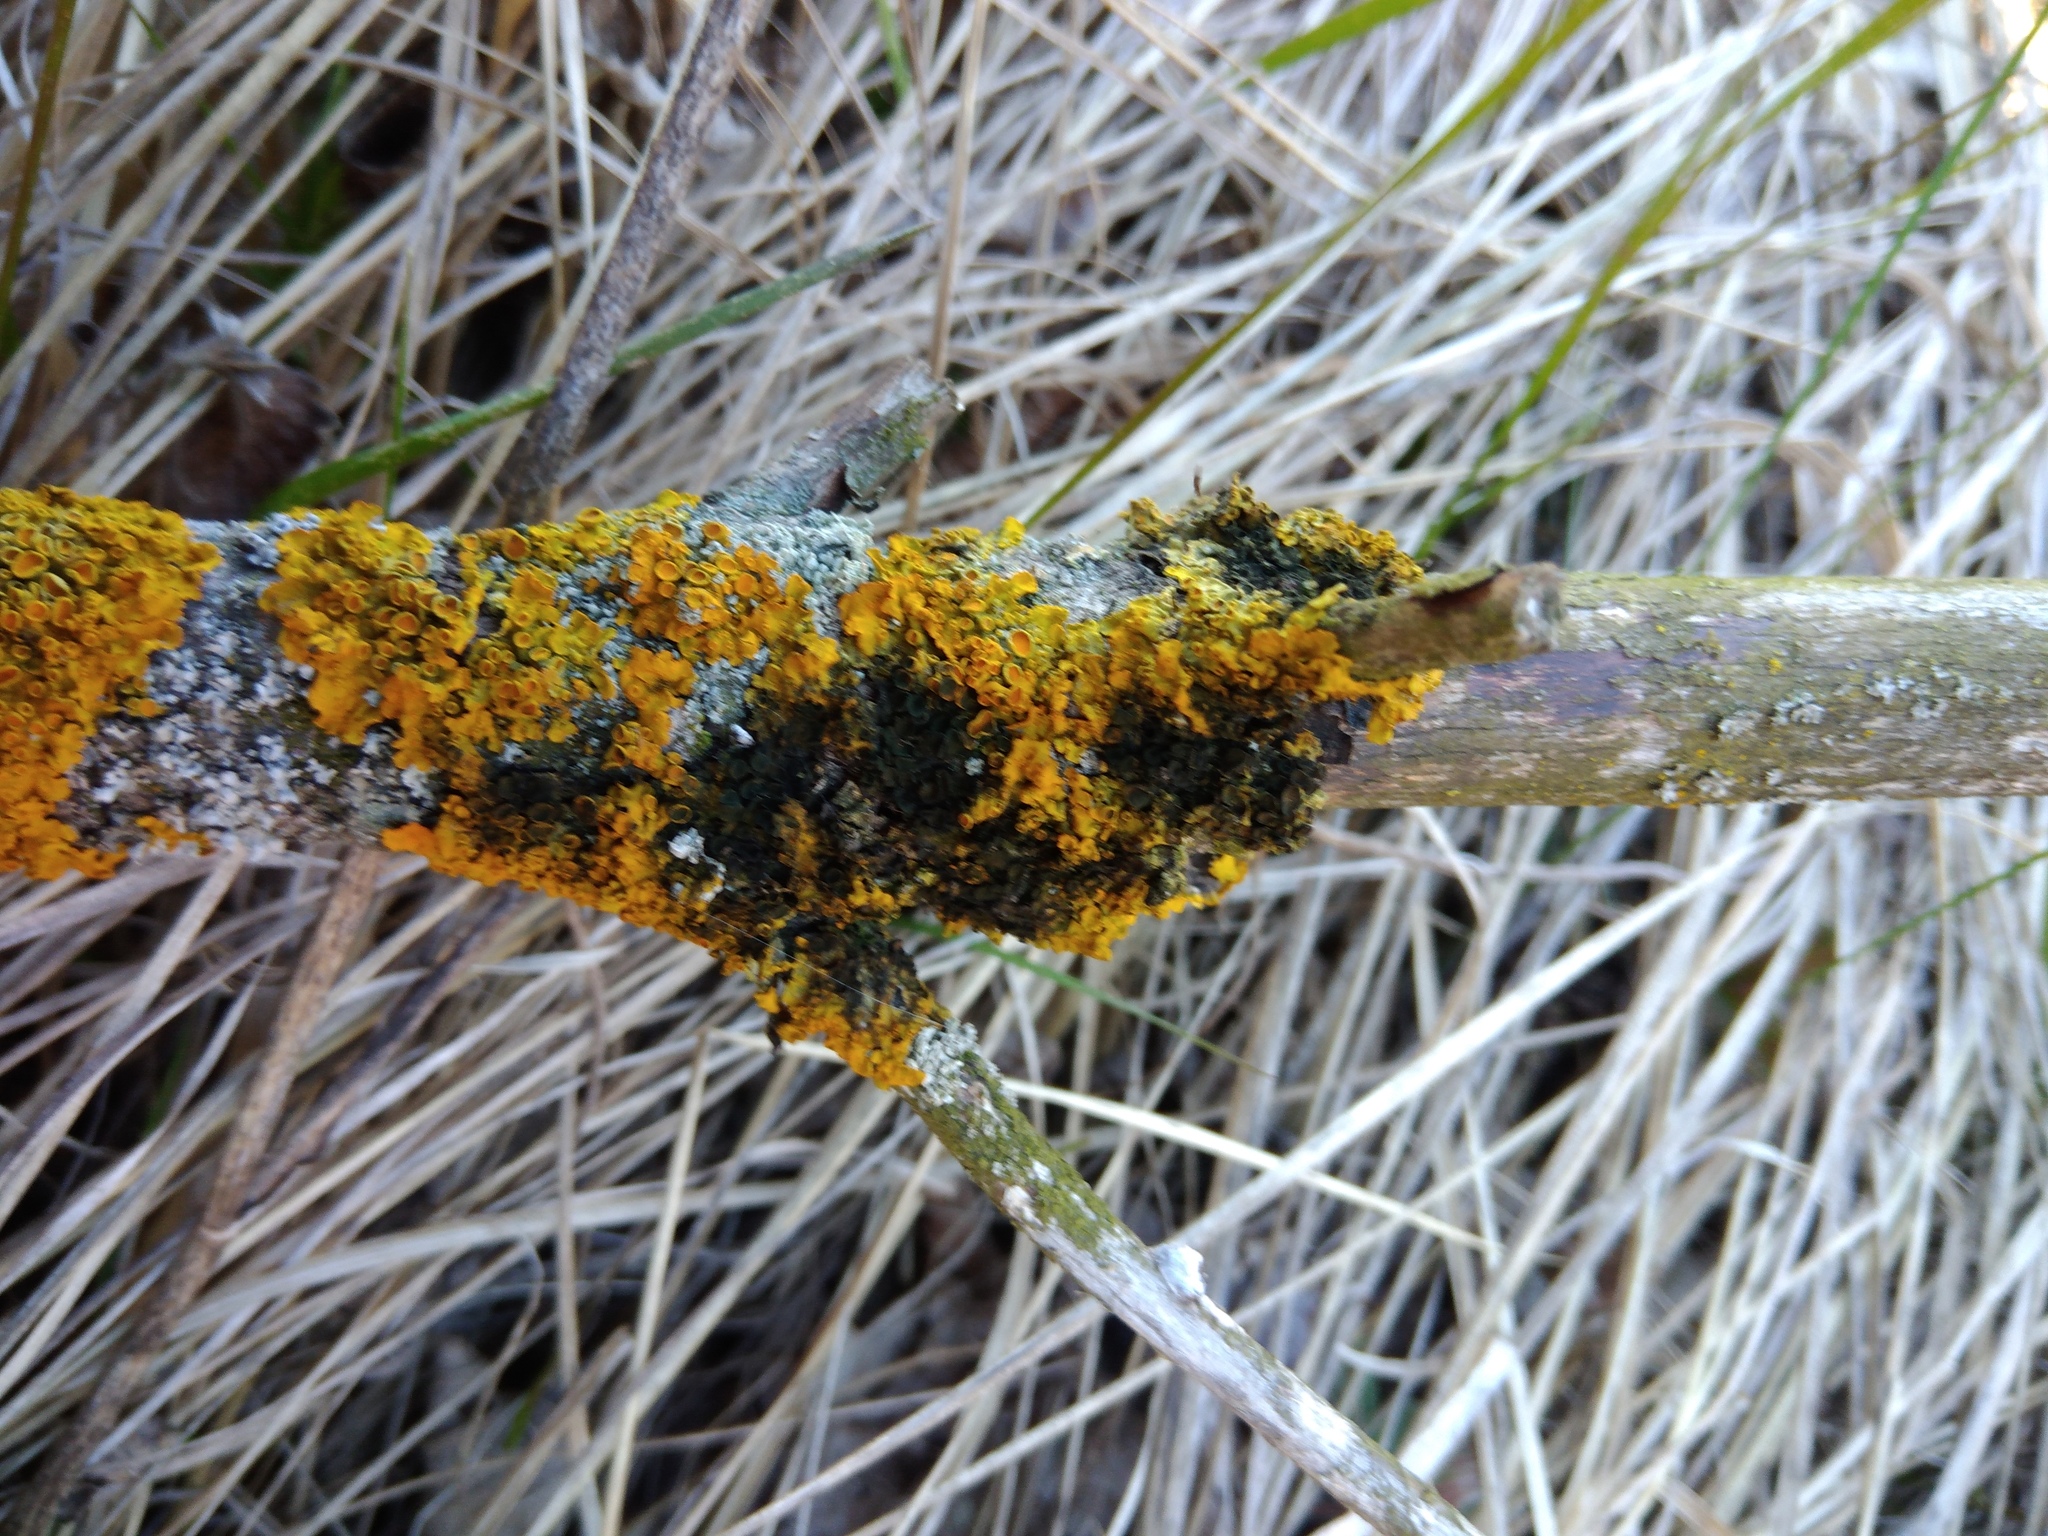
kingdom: Fungi
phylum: Ascomycota
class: Dothideomycetes
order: Mycosphaerellales
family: Teratosphaeriaceae
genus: Xanthoriicola
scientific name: Xanthoriicola physciae
